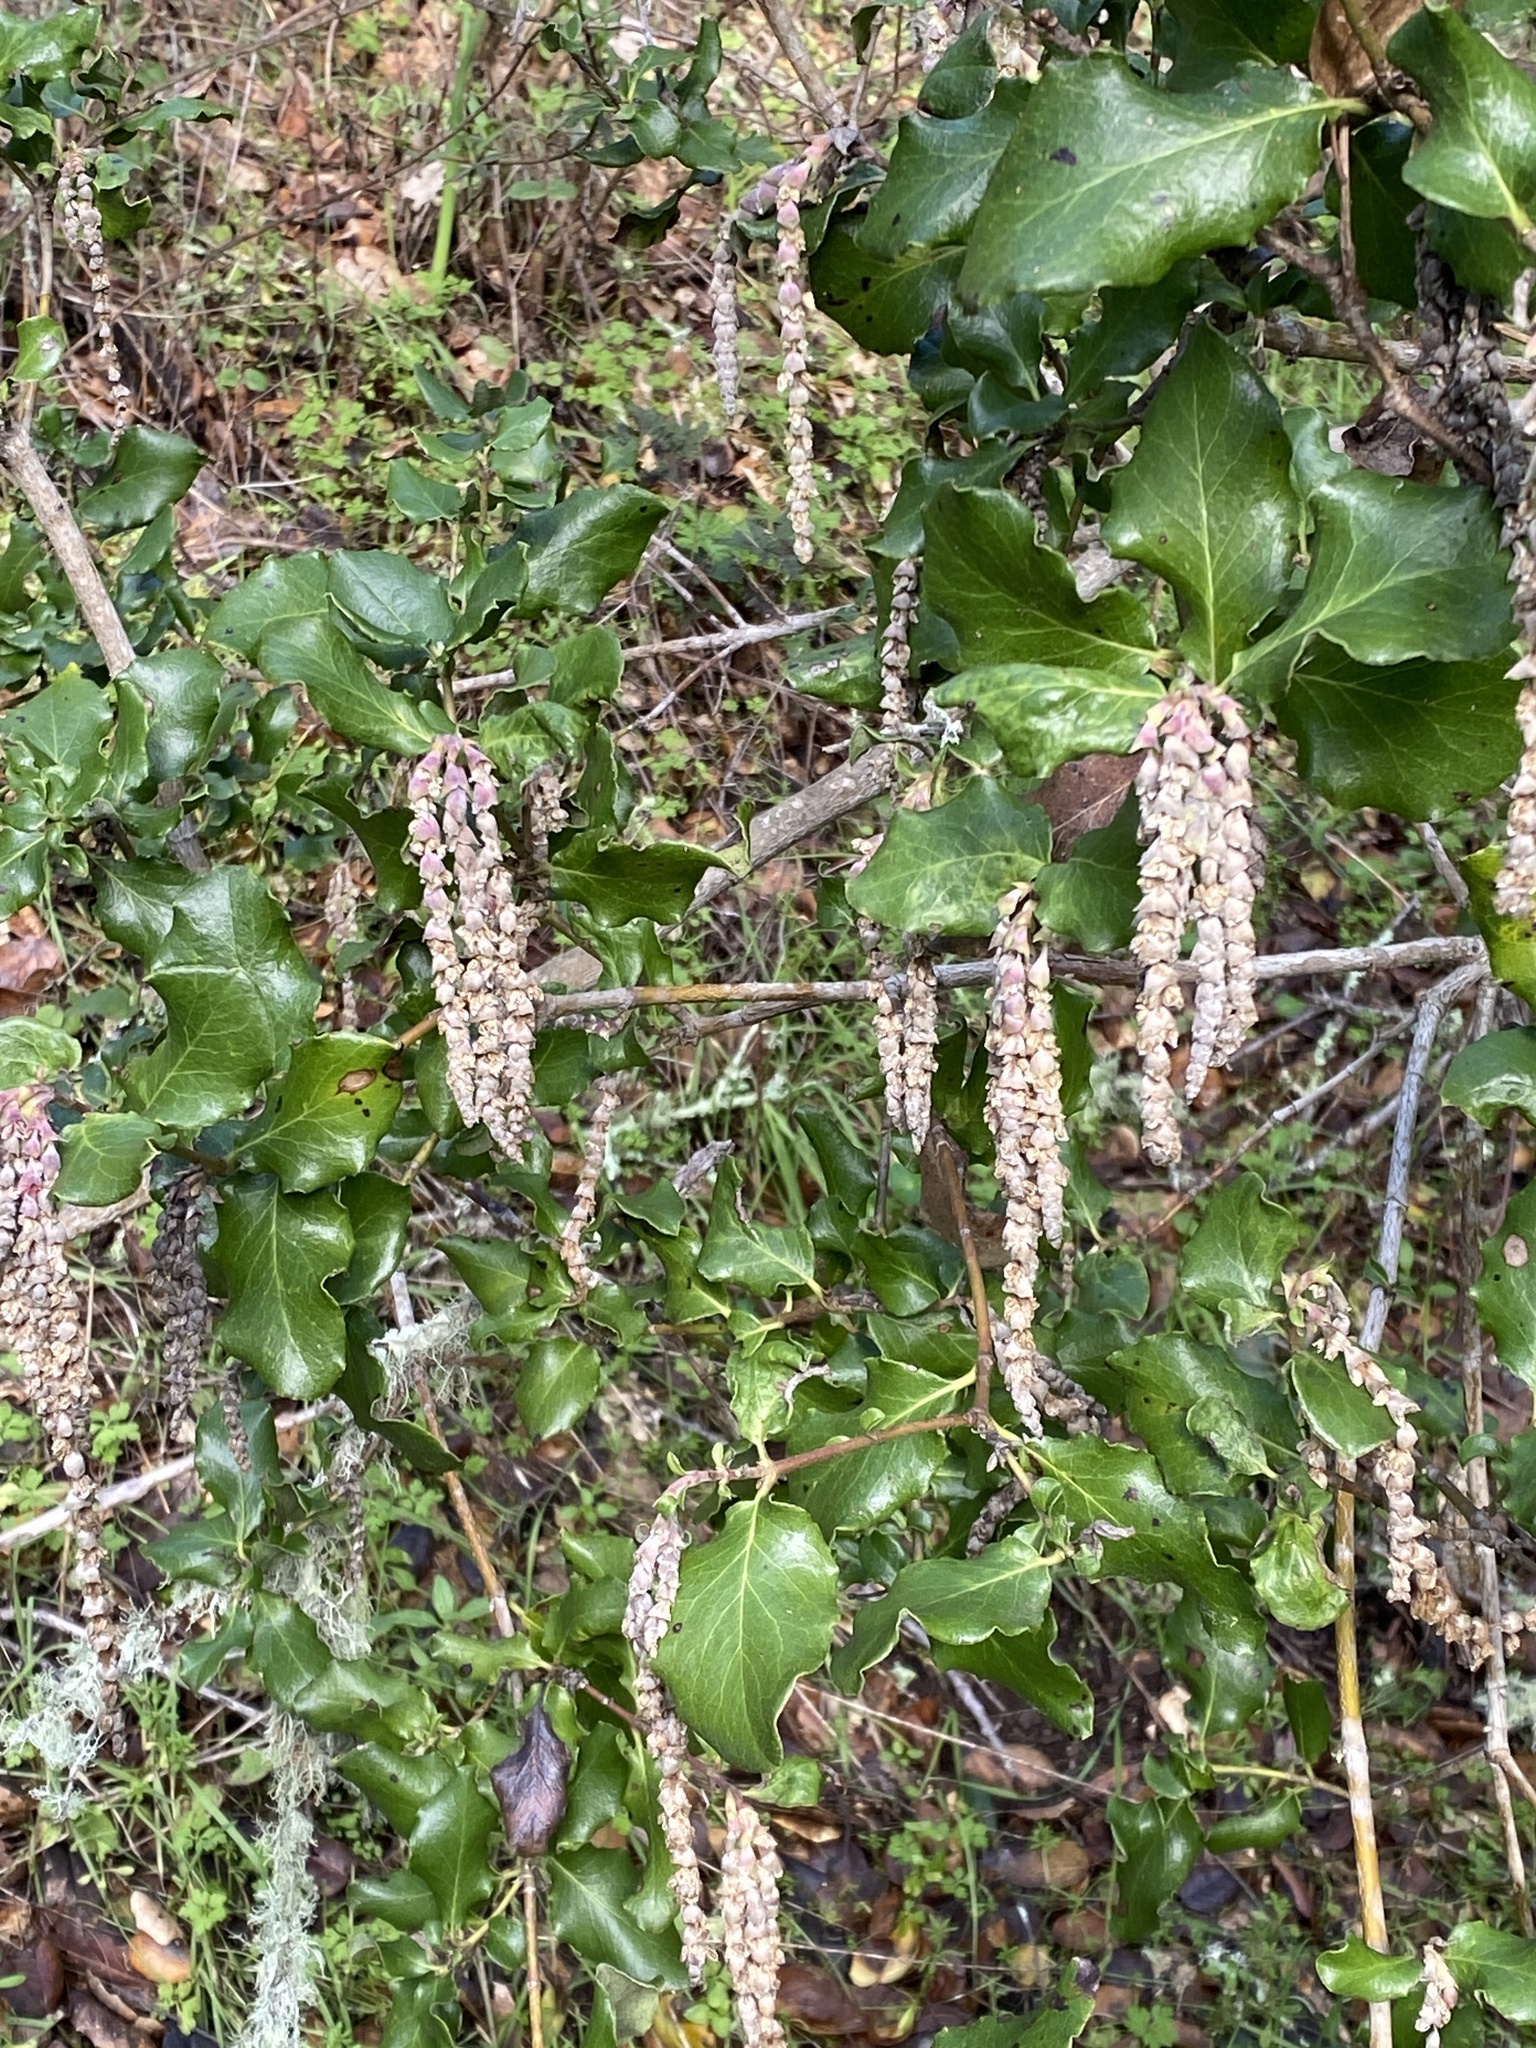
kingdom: Plantae
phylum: Tracheophyta
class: Magnoliopsida
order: Garryales
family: Garryaceae
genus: Garrya
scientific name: Garrya elliptica
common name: Silk-tassel
